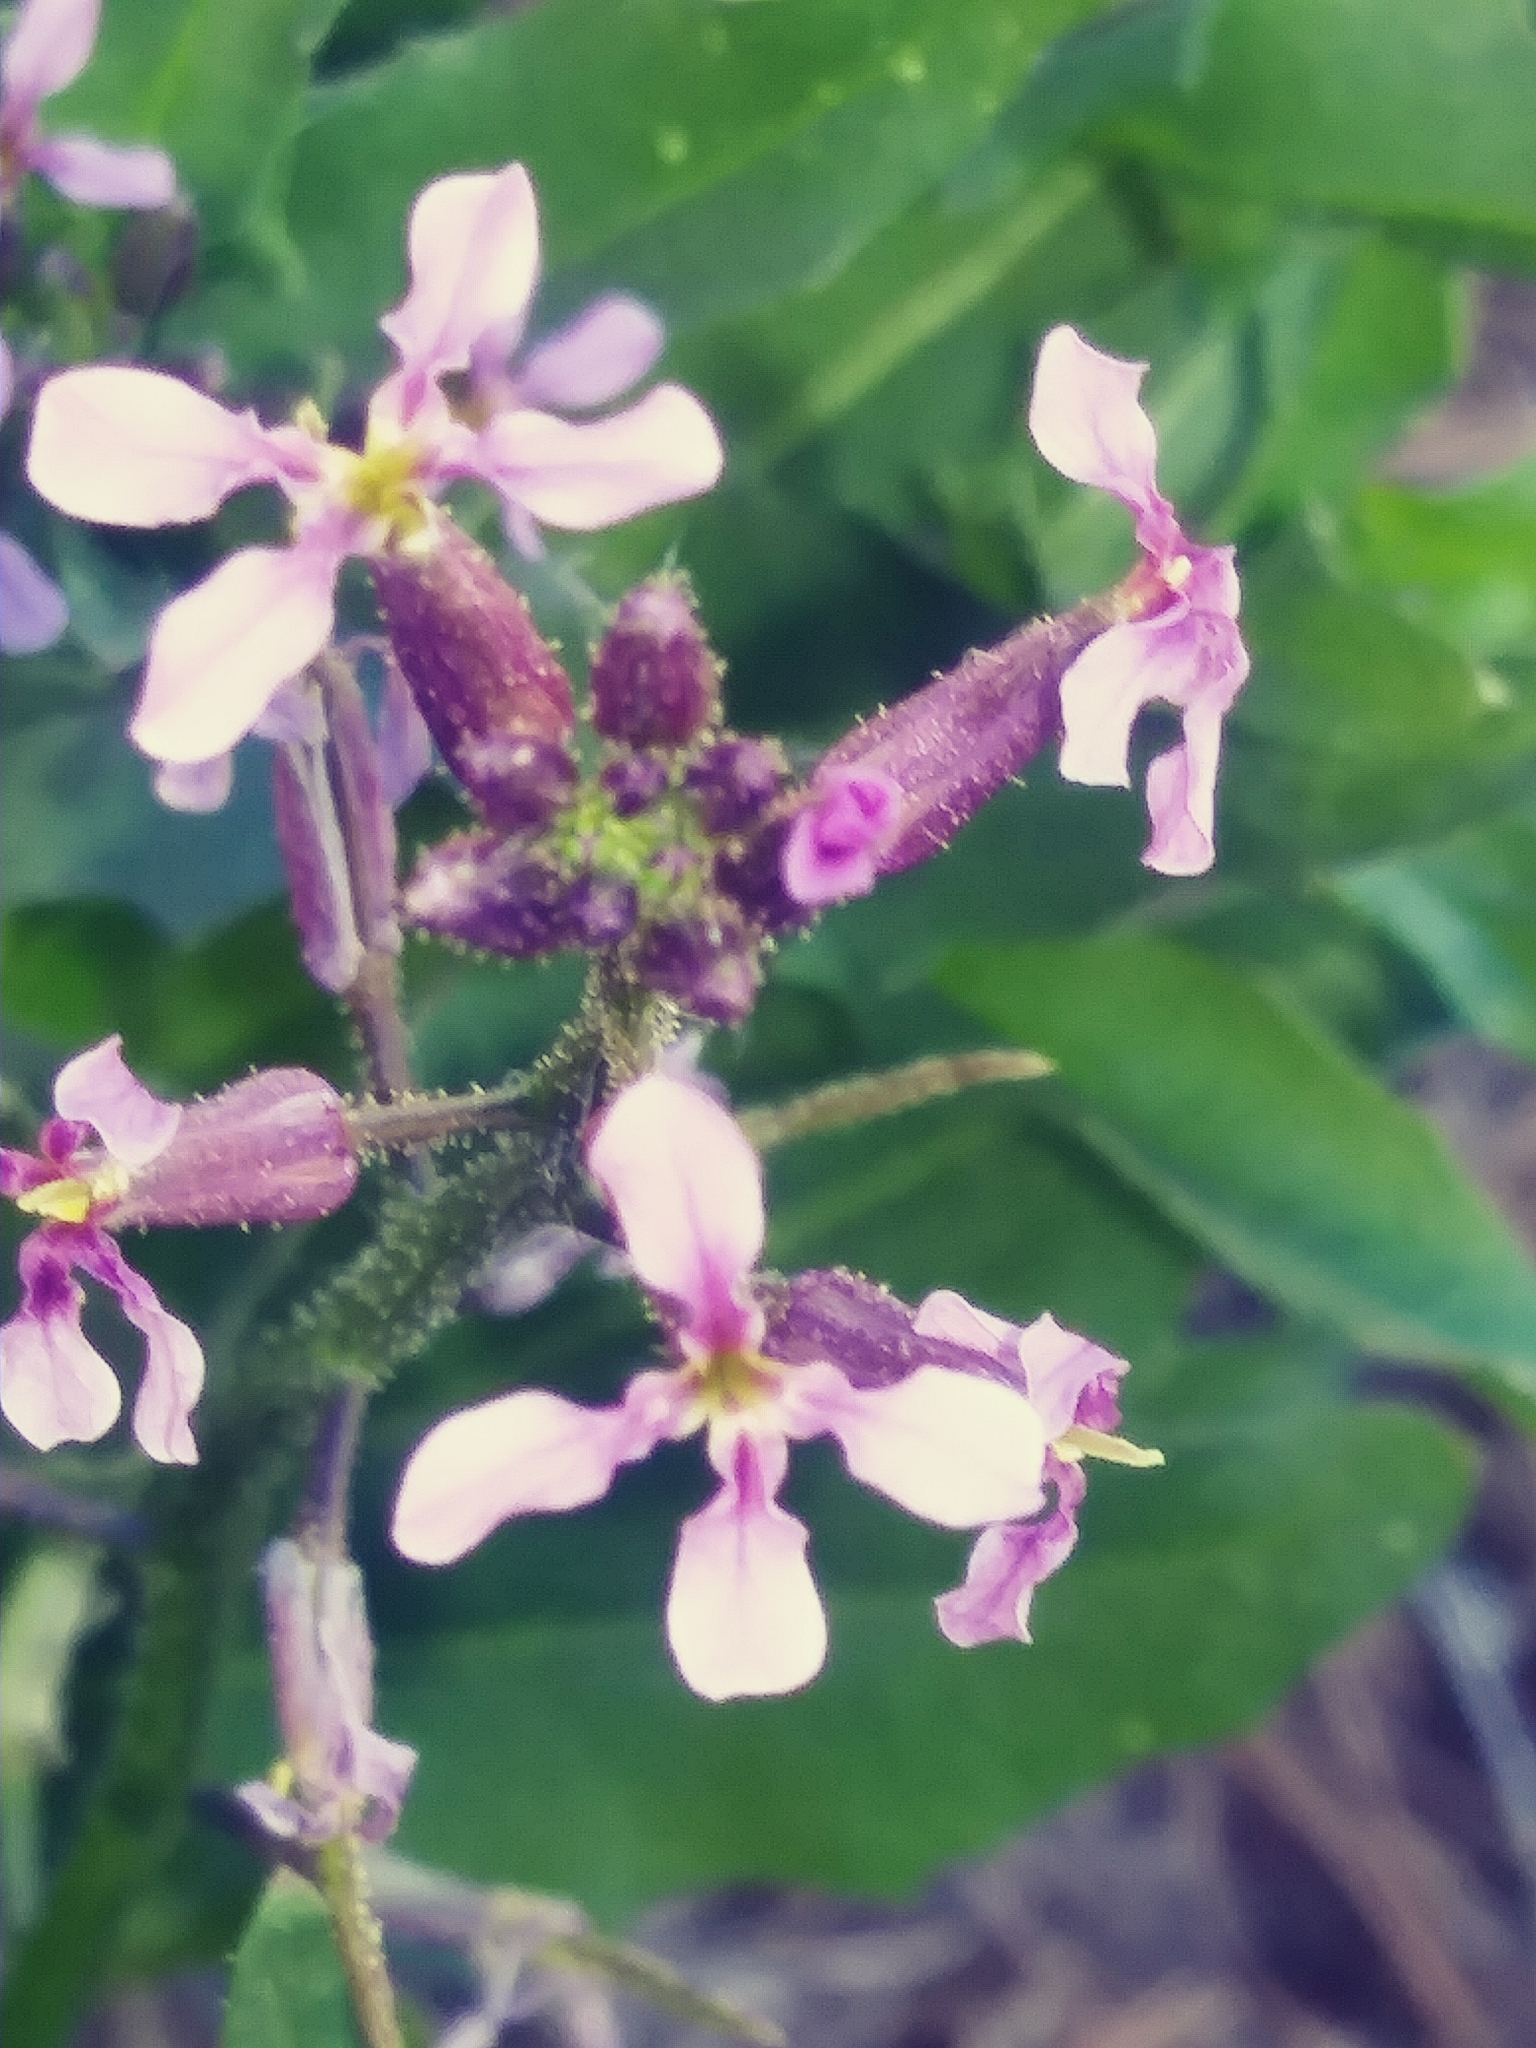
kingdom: Plantae
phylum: Tracheophyta
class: Magnoliopsida
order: Brassicales
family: Brassicaceae
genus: Chorispora
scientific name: Chorispora tenella
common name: Crossflower
